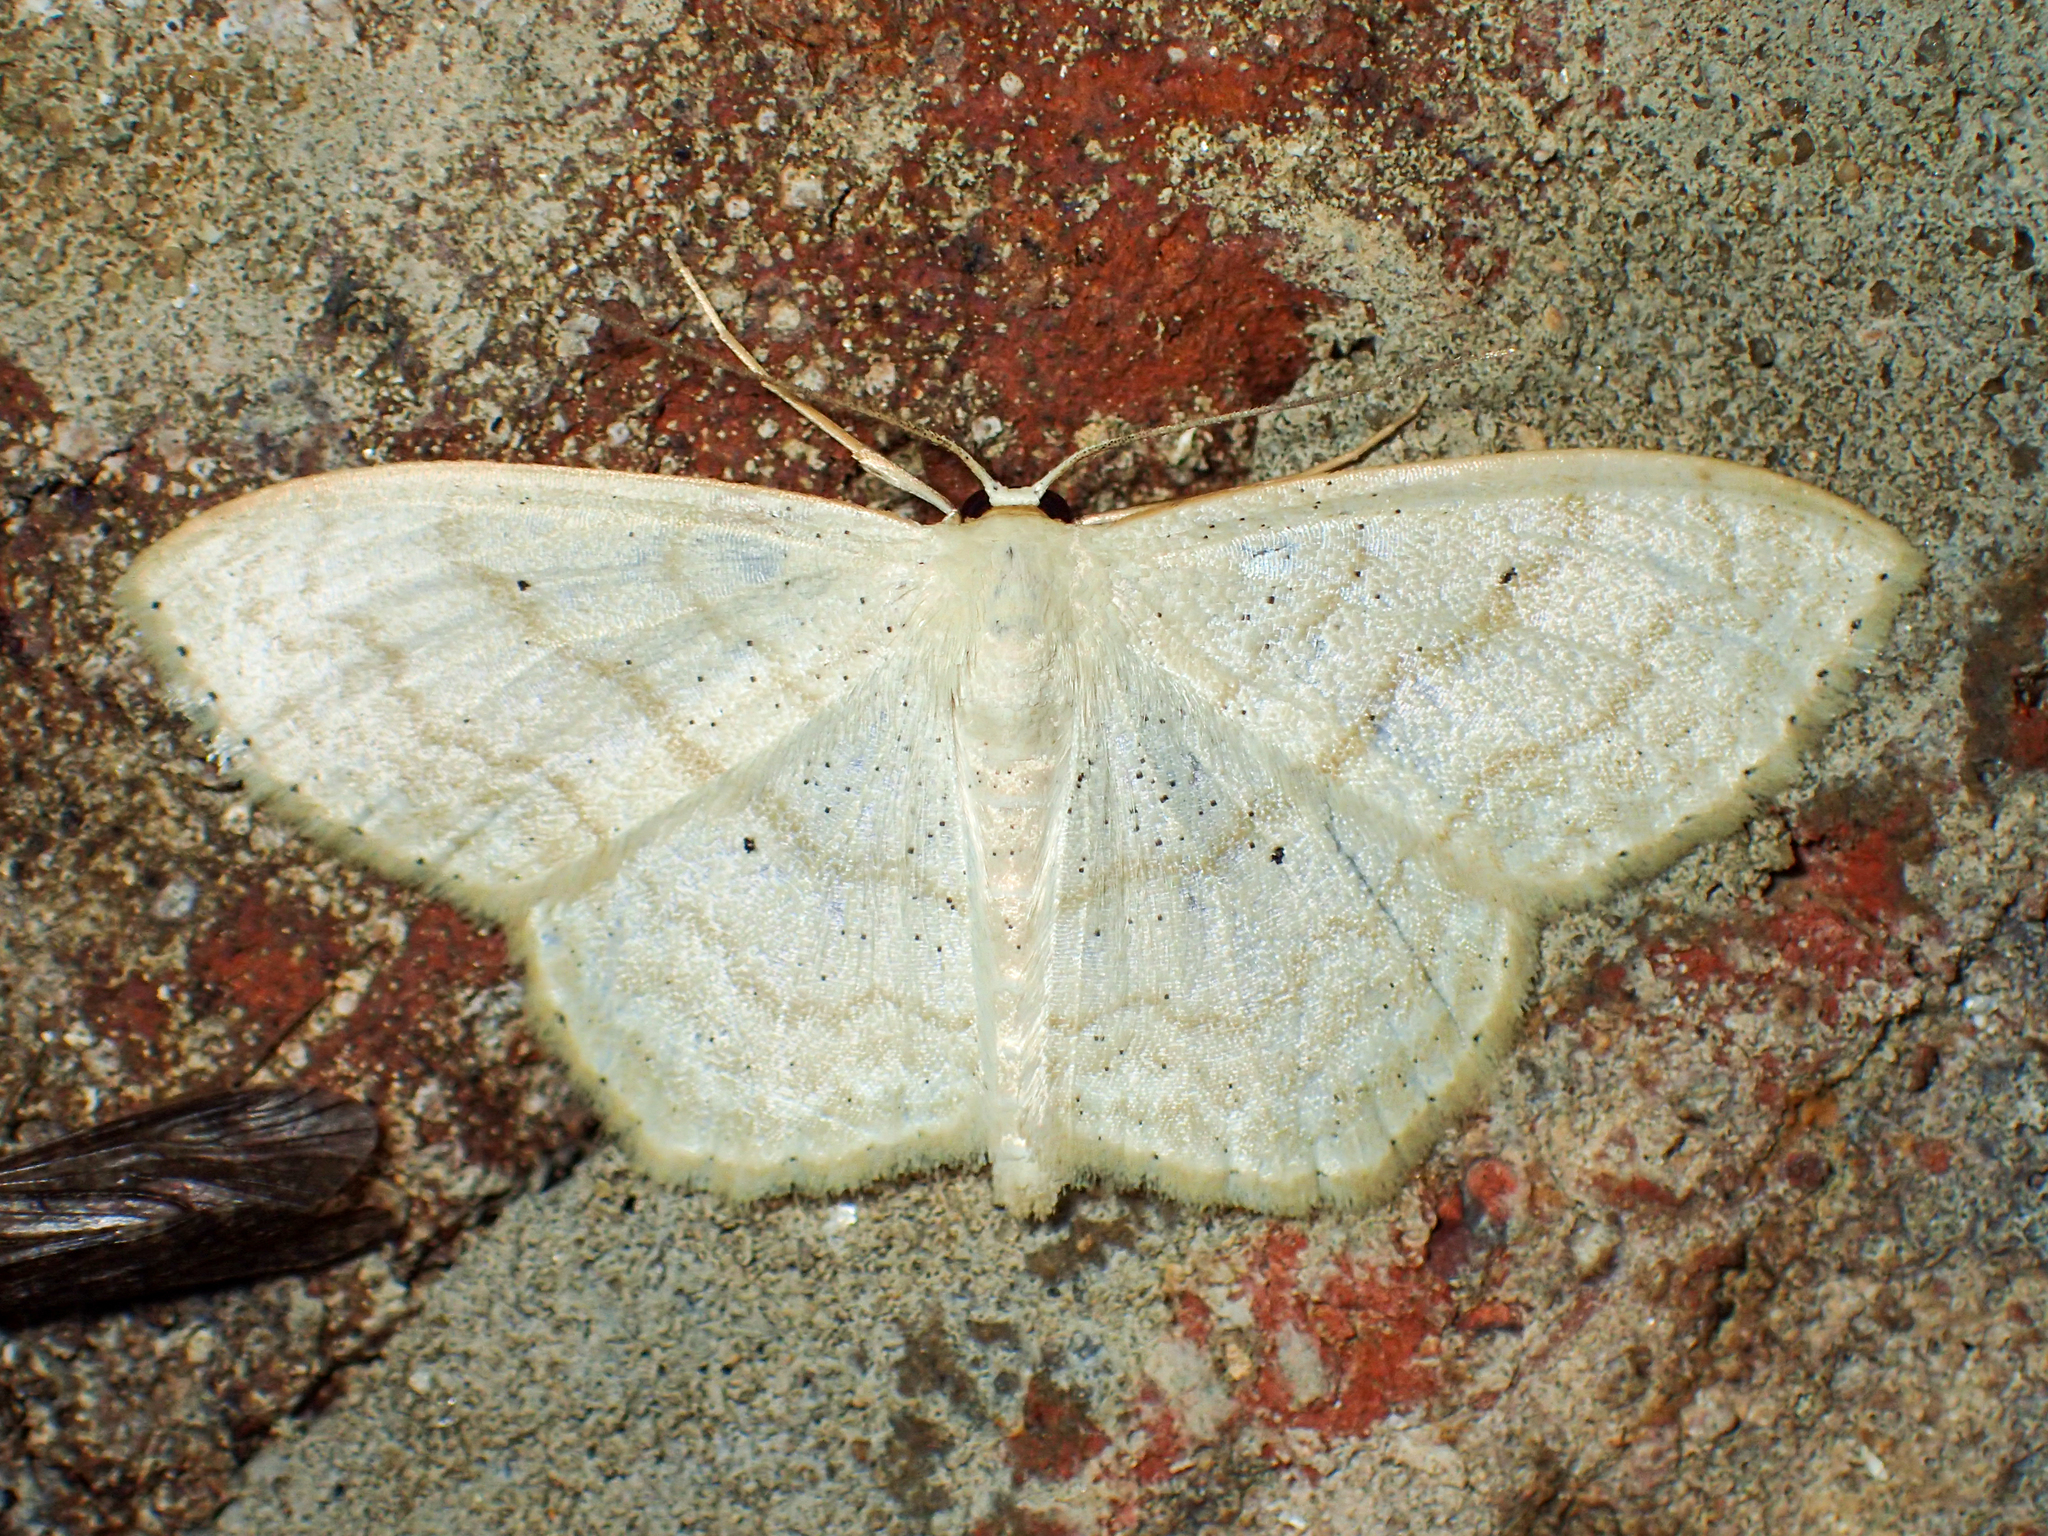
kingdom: Animalia
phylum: Arthropoda
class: Insecta
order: Lepidoptera
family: Geometridae
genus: Scopula
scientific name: Scopula limboundata
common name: Large lace border
